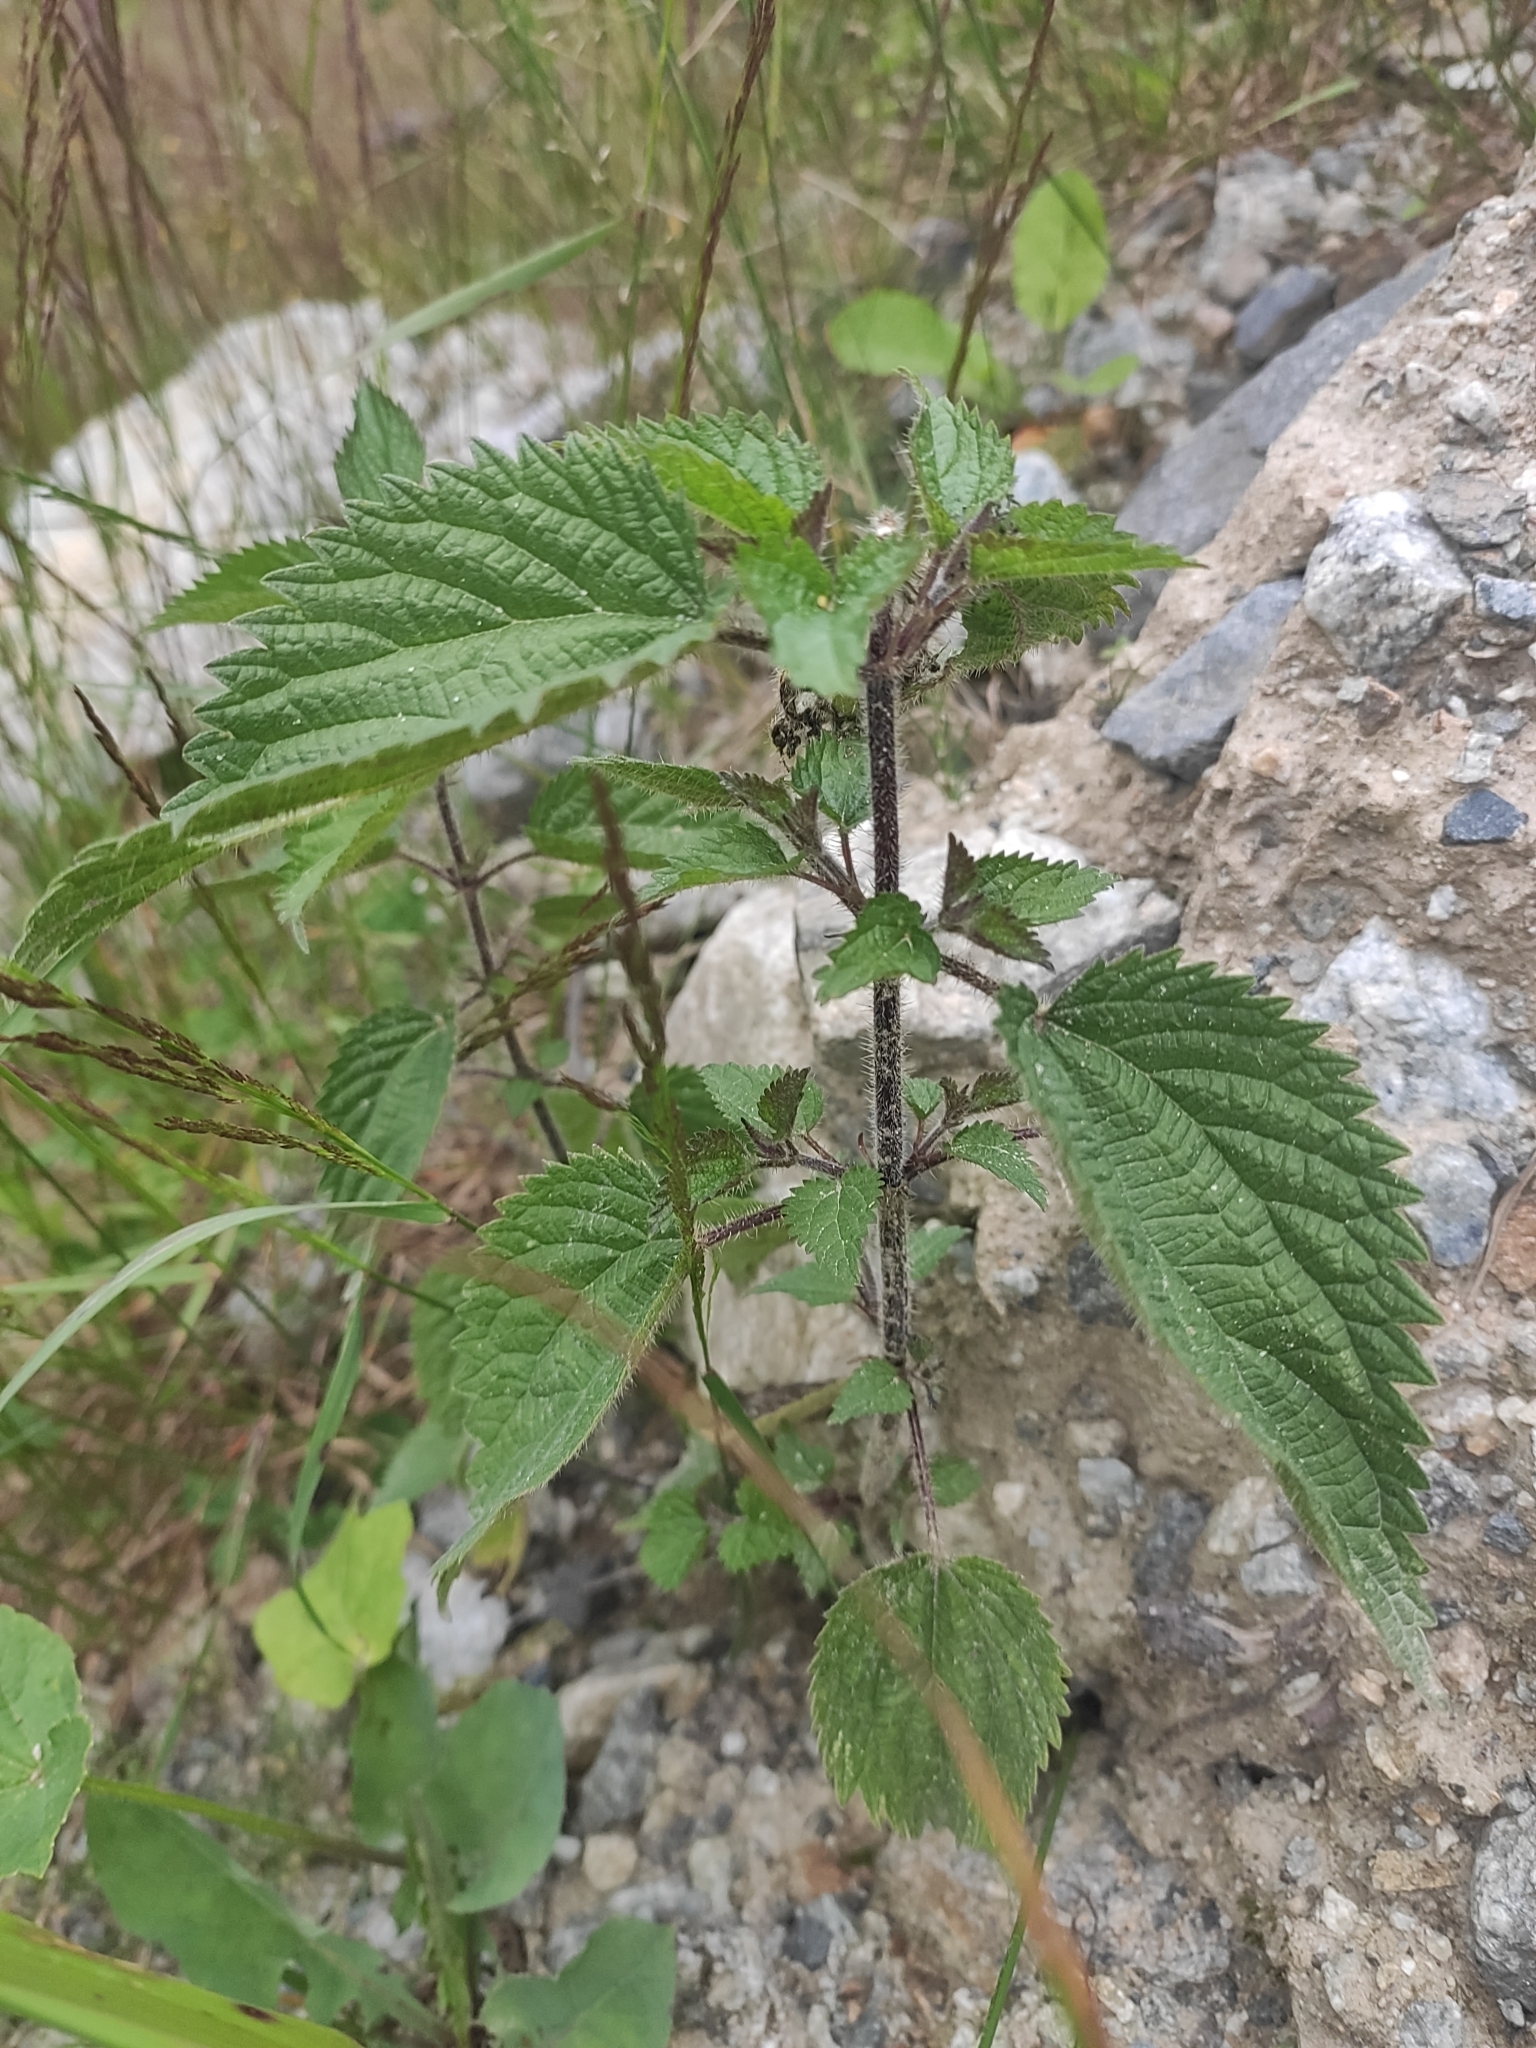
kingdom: Plantae
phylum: Tracheophyta
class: Magnoliopsida
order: Rosales
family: Urticaceae
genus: Urtica
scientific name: Urtica dioica
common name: Common nettle
